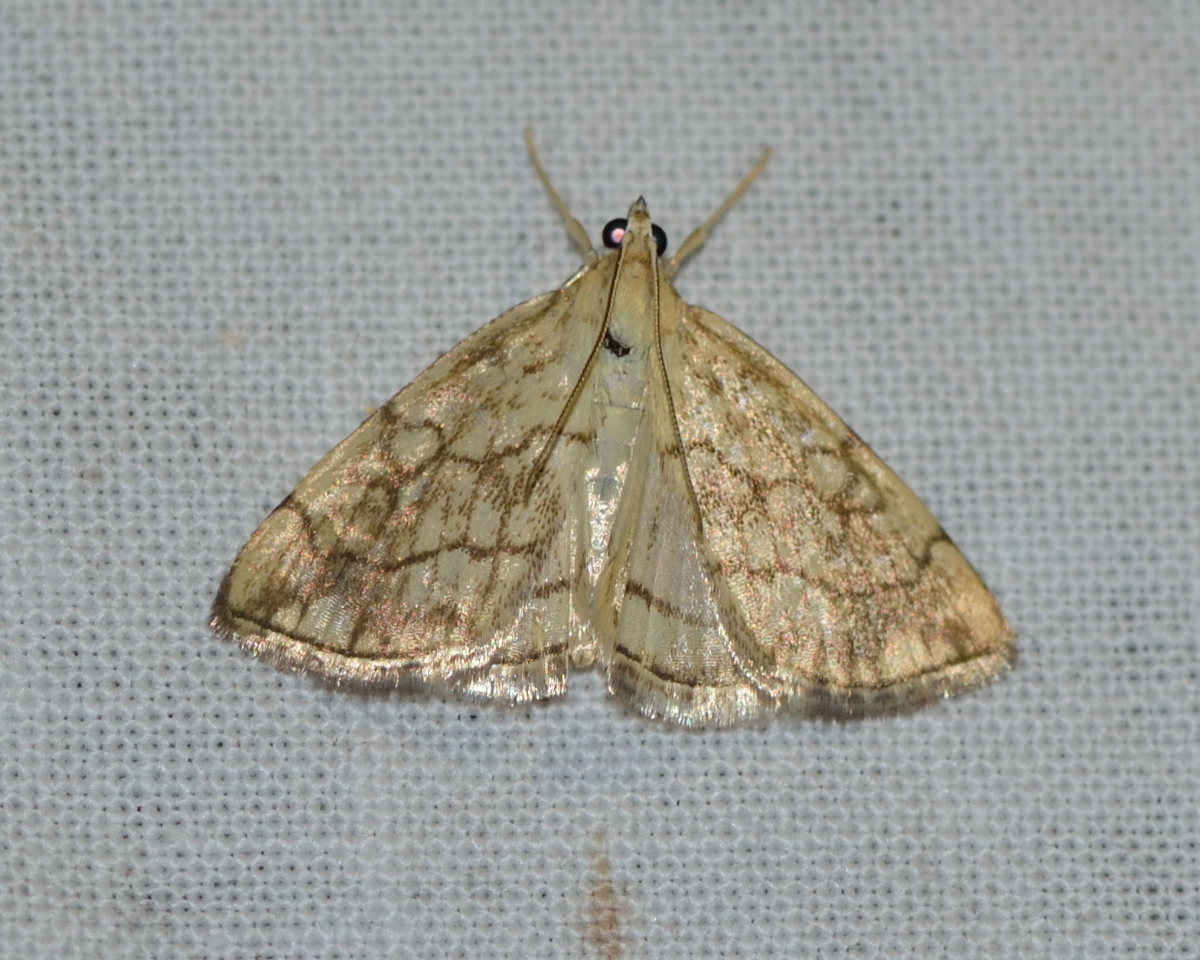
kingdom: Animalia
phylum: Arthropoda
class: Insecta
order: Lepidoptera
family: Crambidae
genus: Evergestis
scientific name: Evergestis pallidata
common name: Chequered pearl
